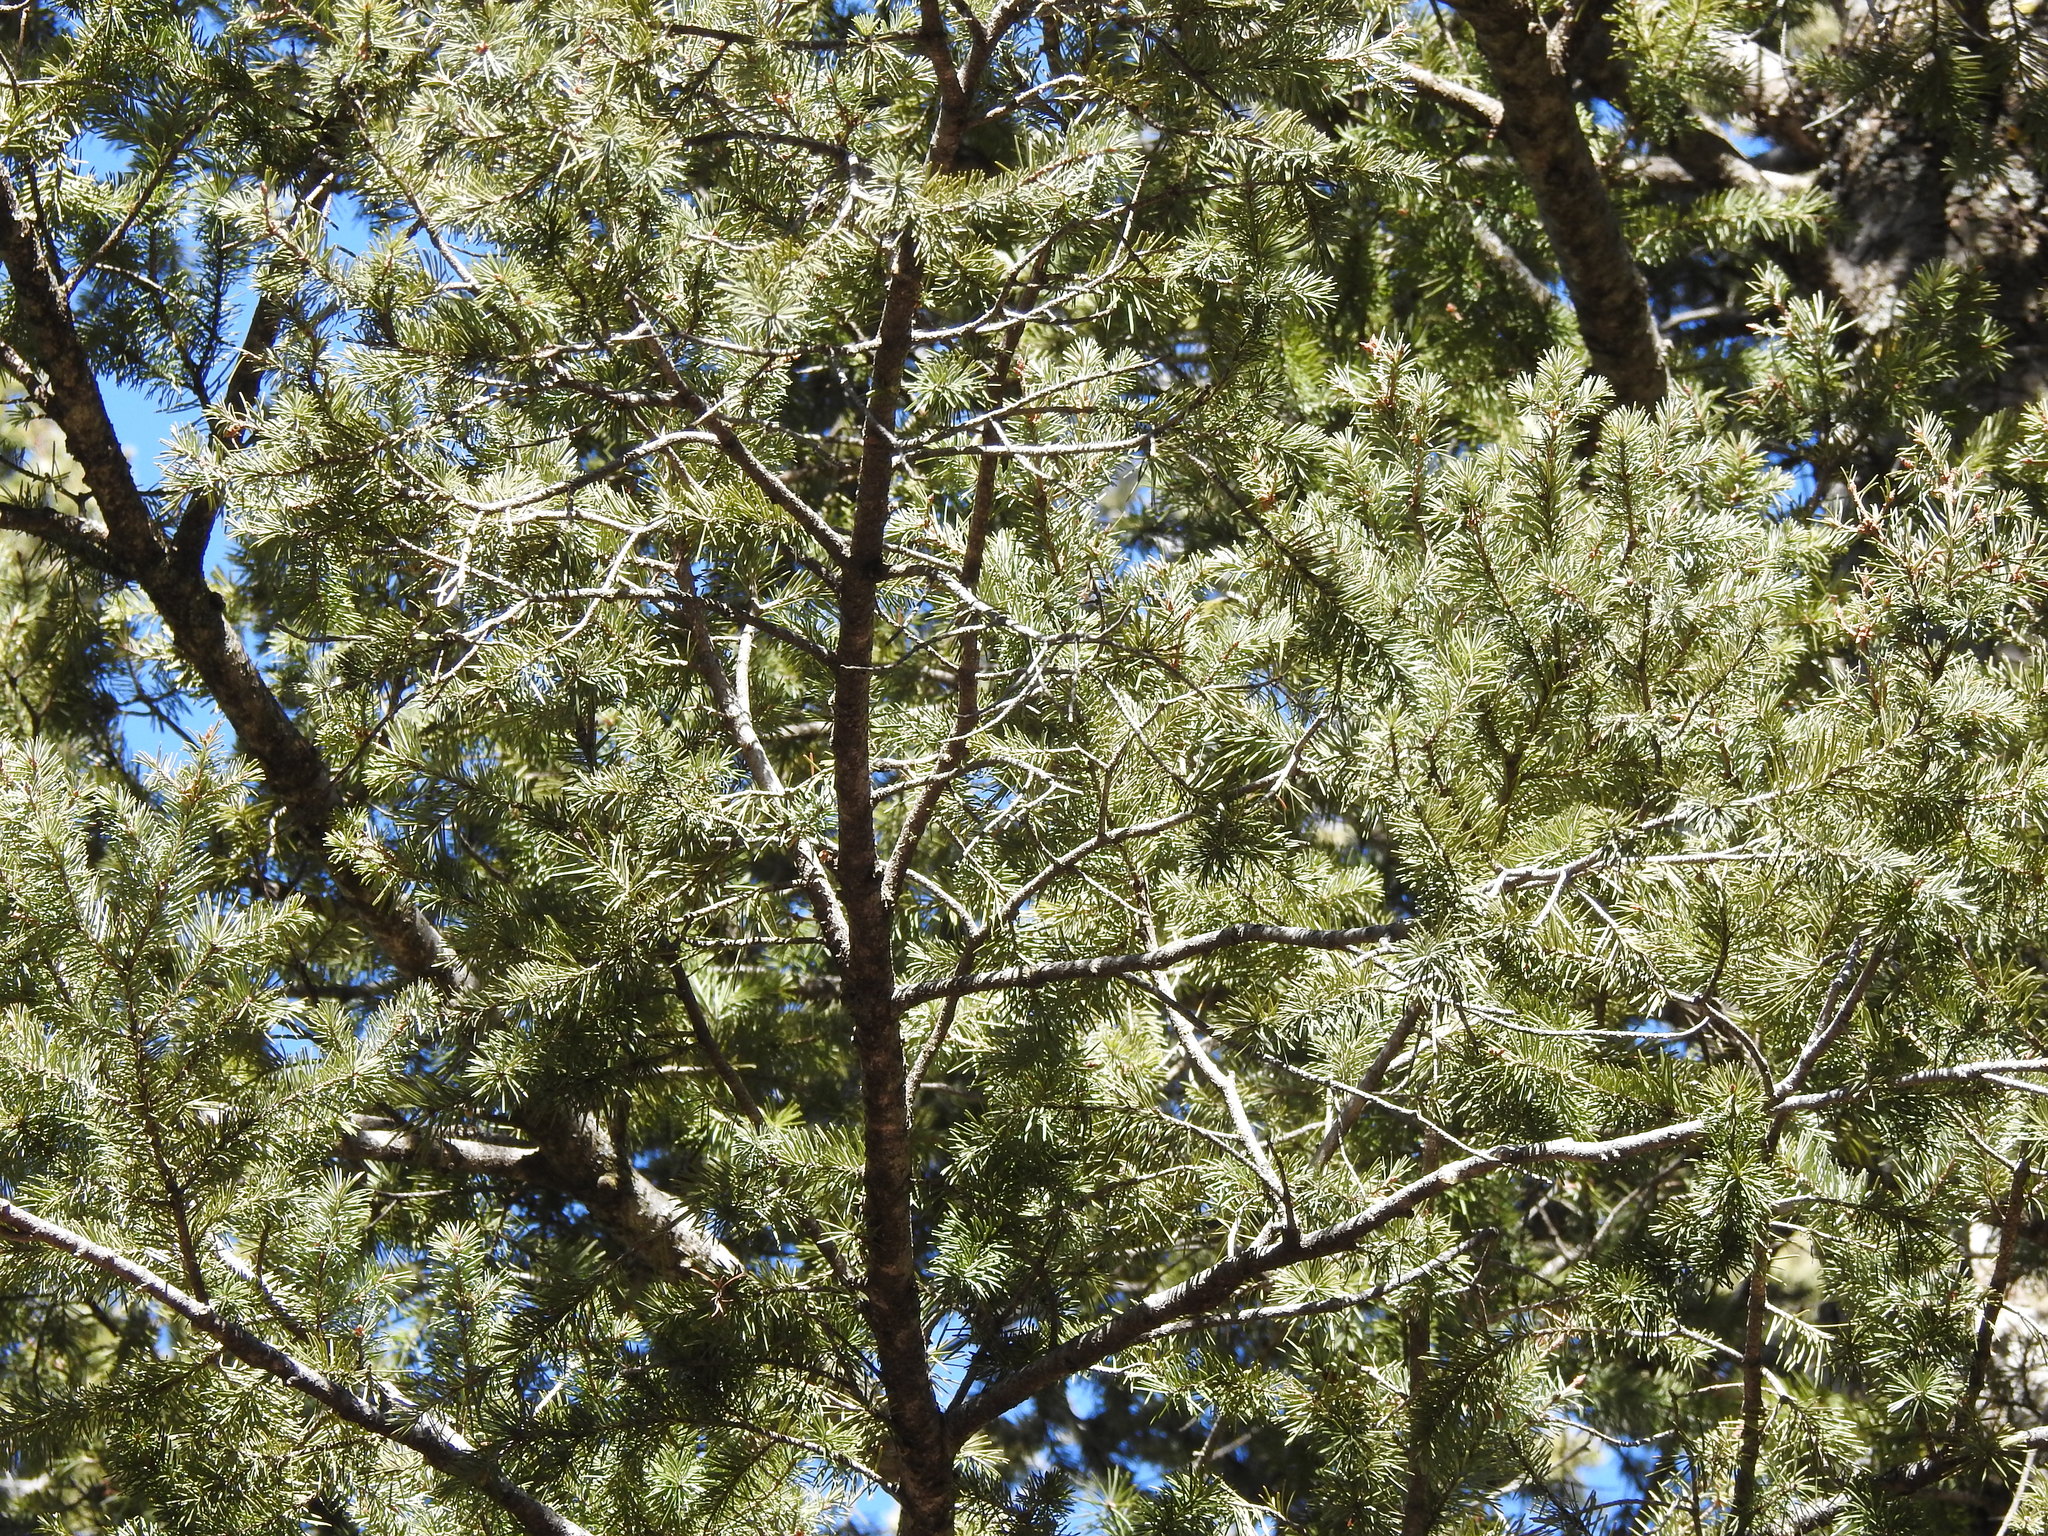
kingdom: Plantae
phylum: Tracheophyta
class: Pinopsida
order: Pinales
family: Pinaceae
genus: Pseudotsuga
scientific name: Pseudotsuga menziesii
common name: Douglas fir
